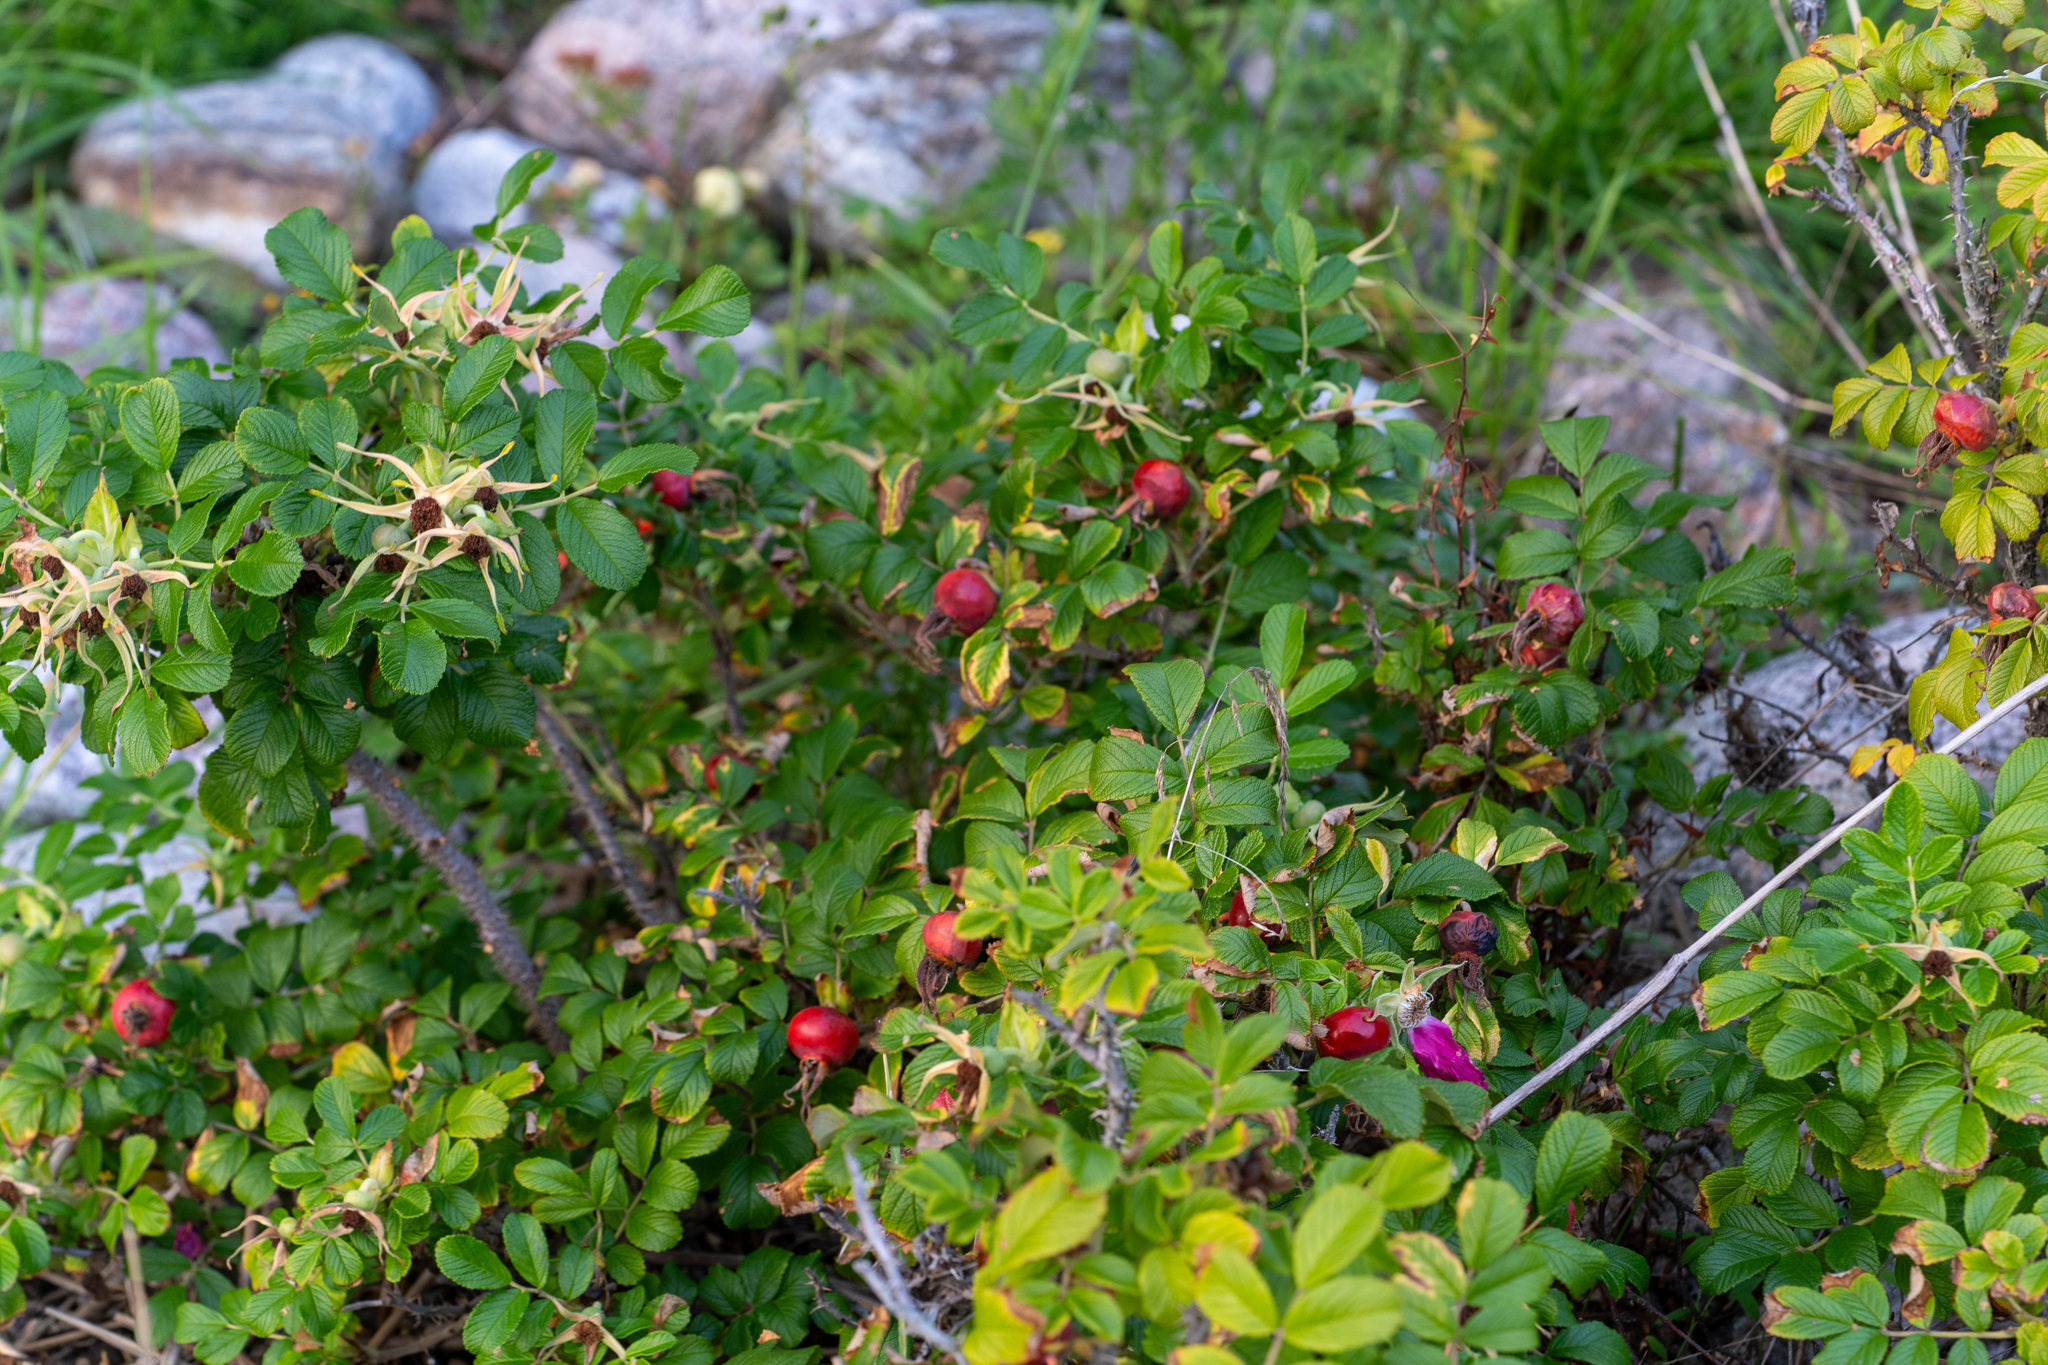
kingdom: Plantae
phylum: Tracheophyta
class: Magnoliopsida
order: Rosales
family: Rosaceae
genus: Rosa
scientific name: Rosa rugosa
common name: Japanese rose
